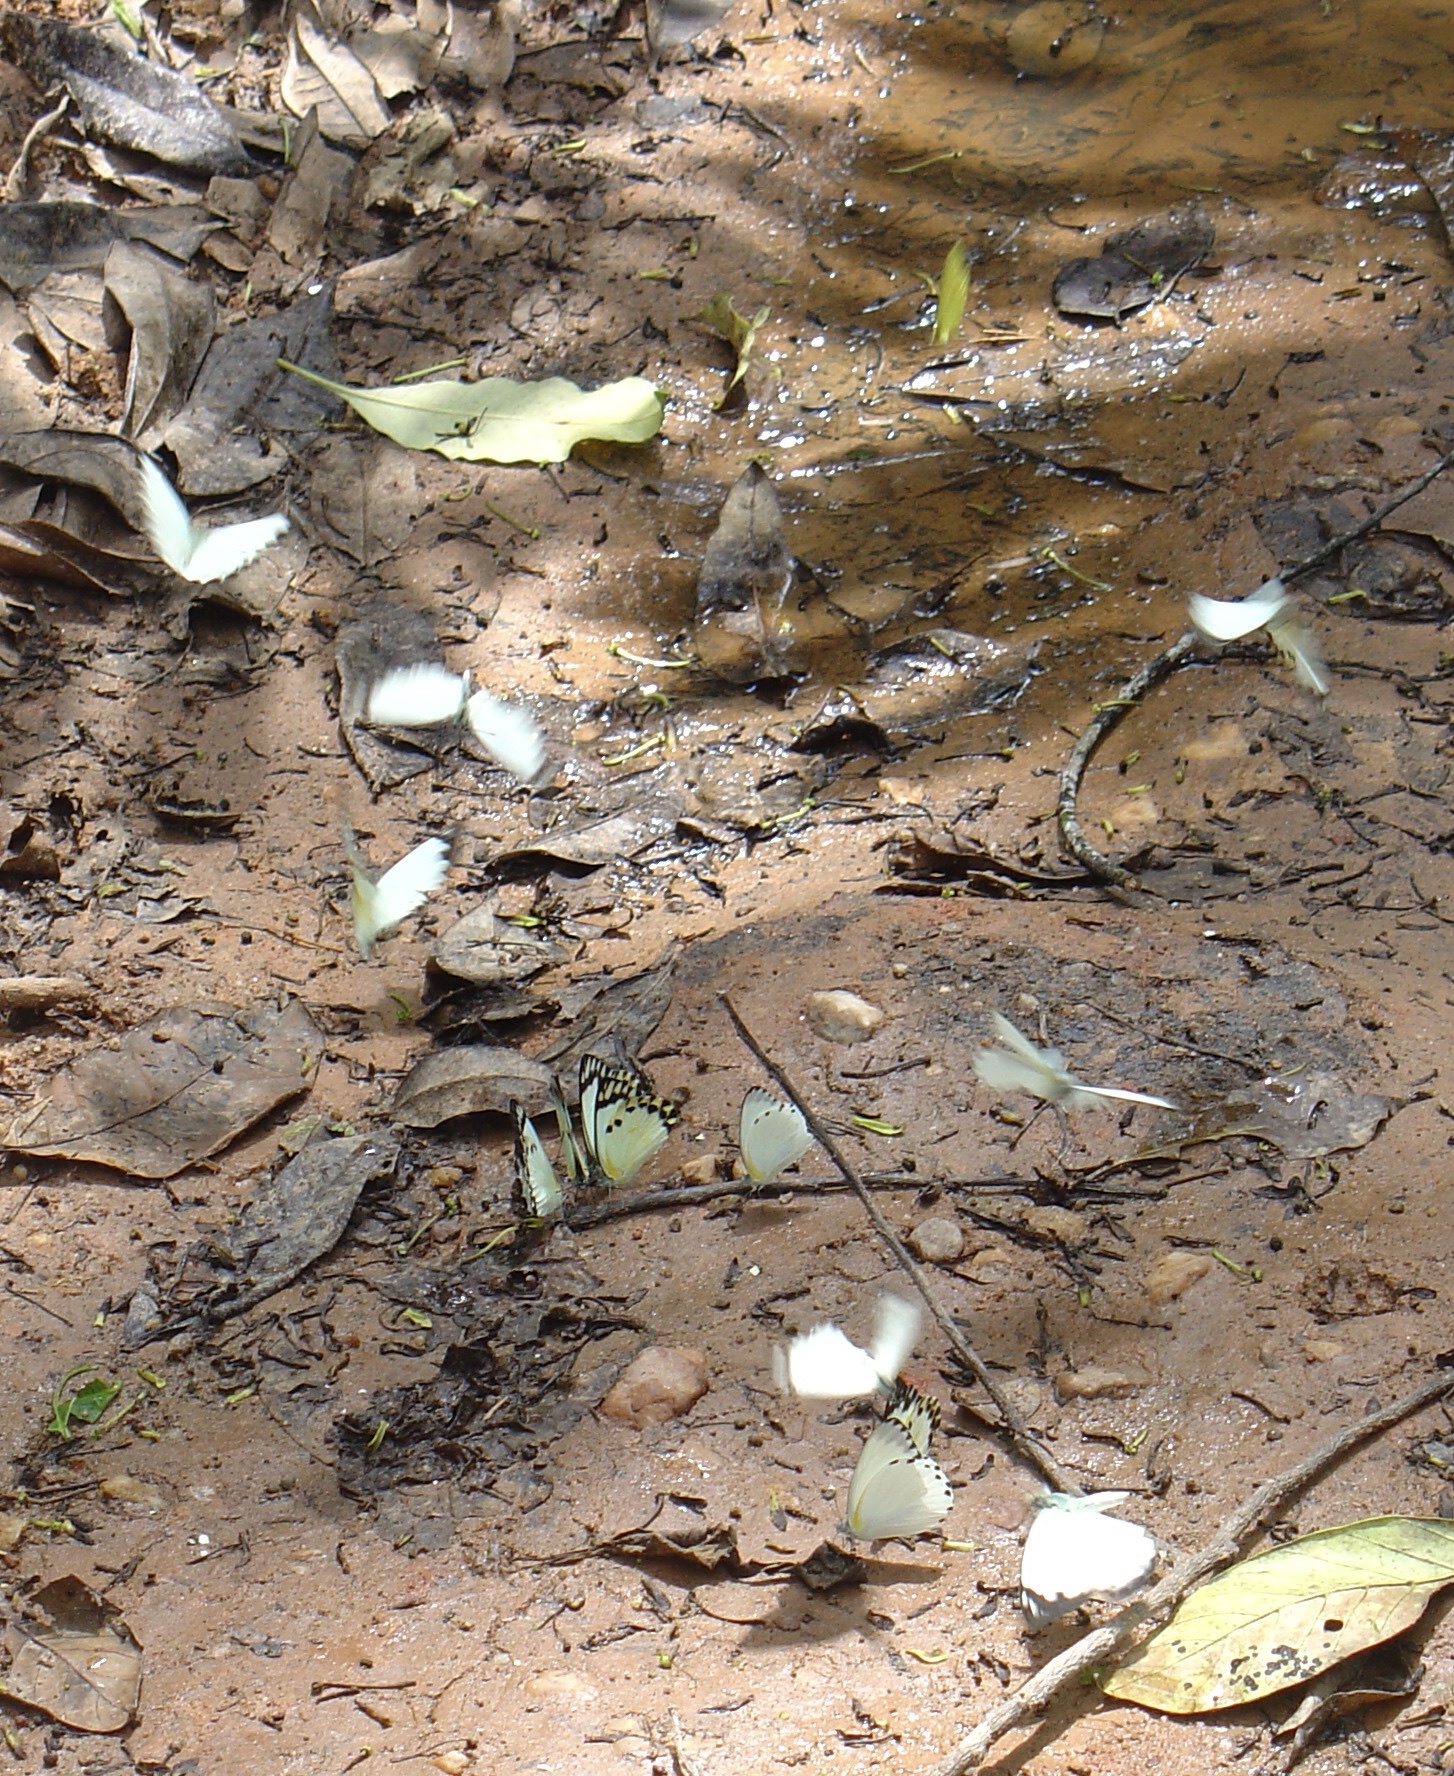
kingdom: Animalia
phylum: Arthropoda
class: Insecta
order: Lepidoptera
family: Pieridae
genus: Belenois
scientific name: Belenois theora
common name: Forest caper white
